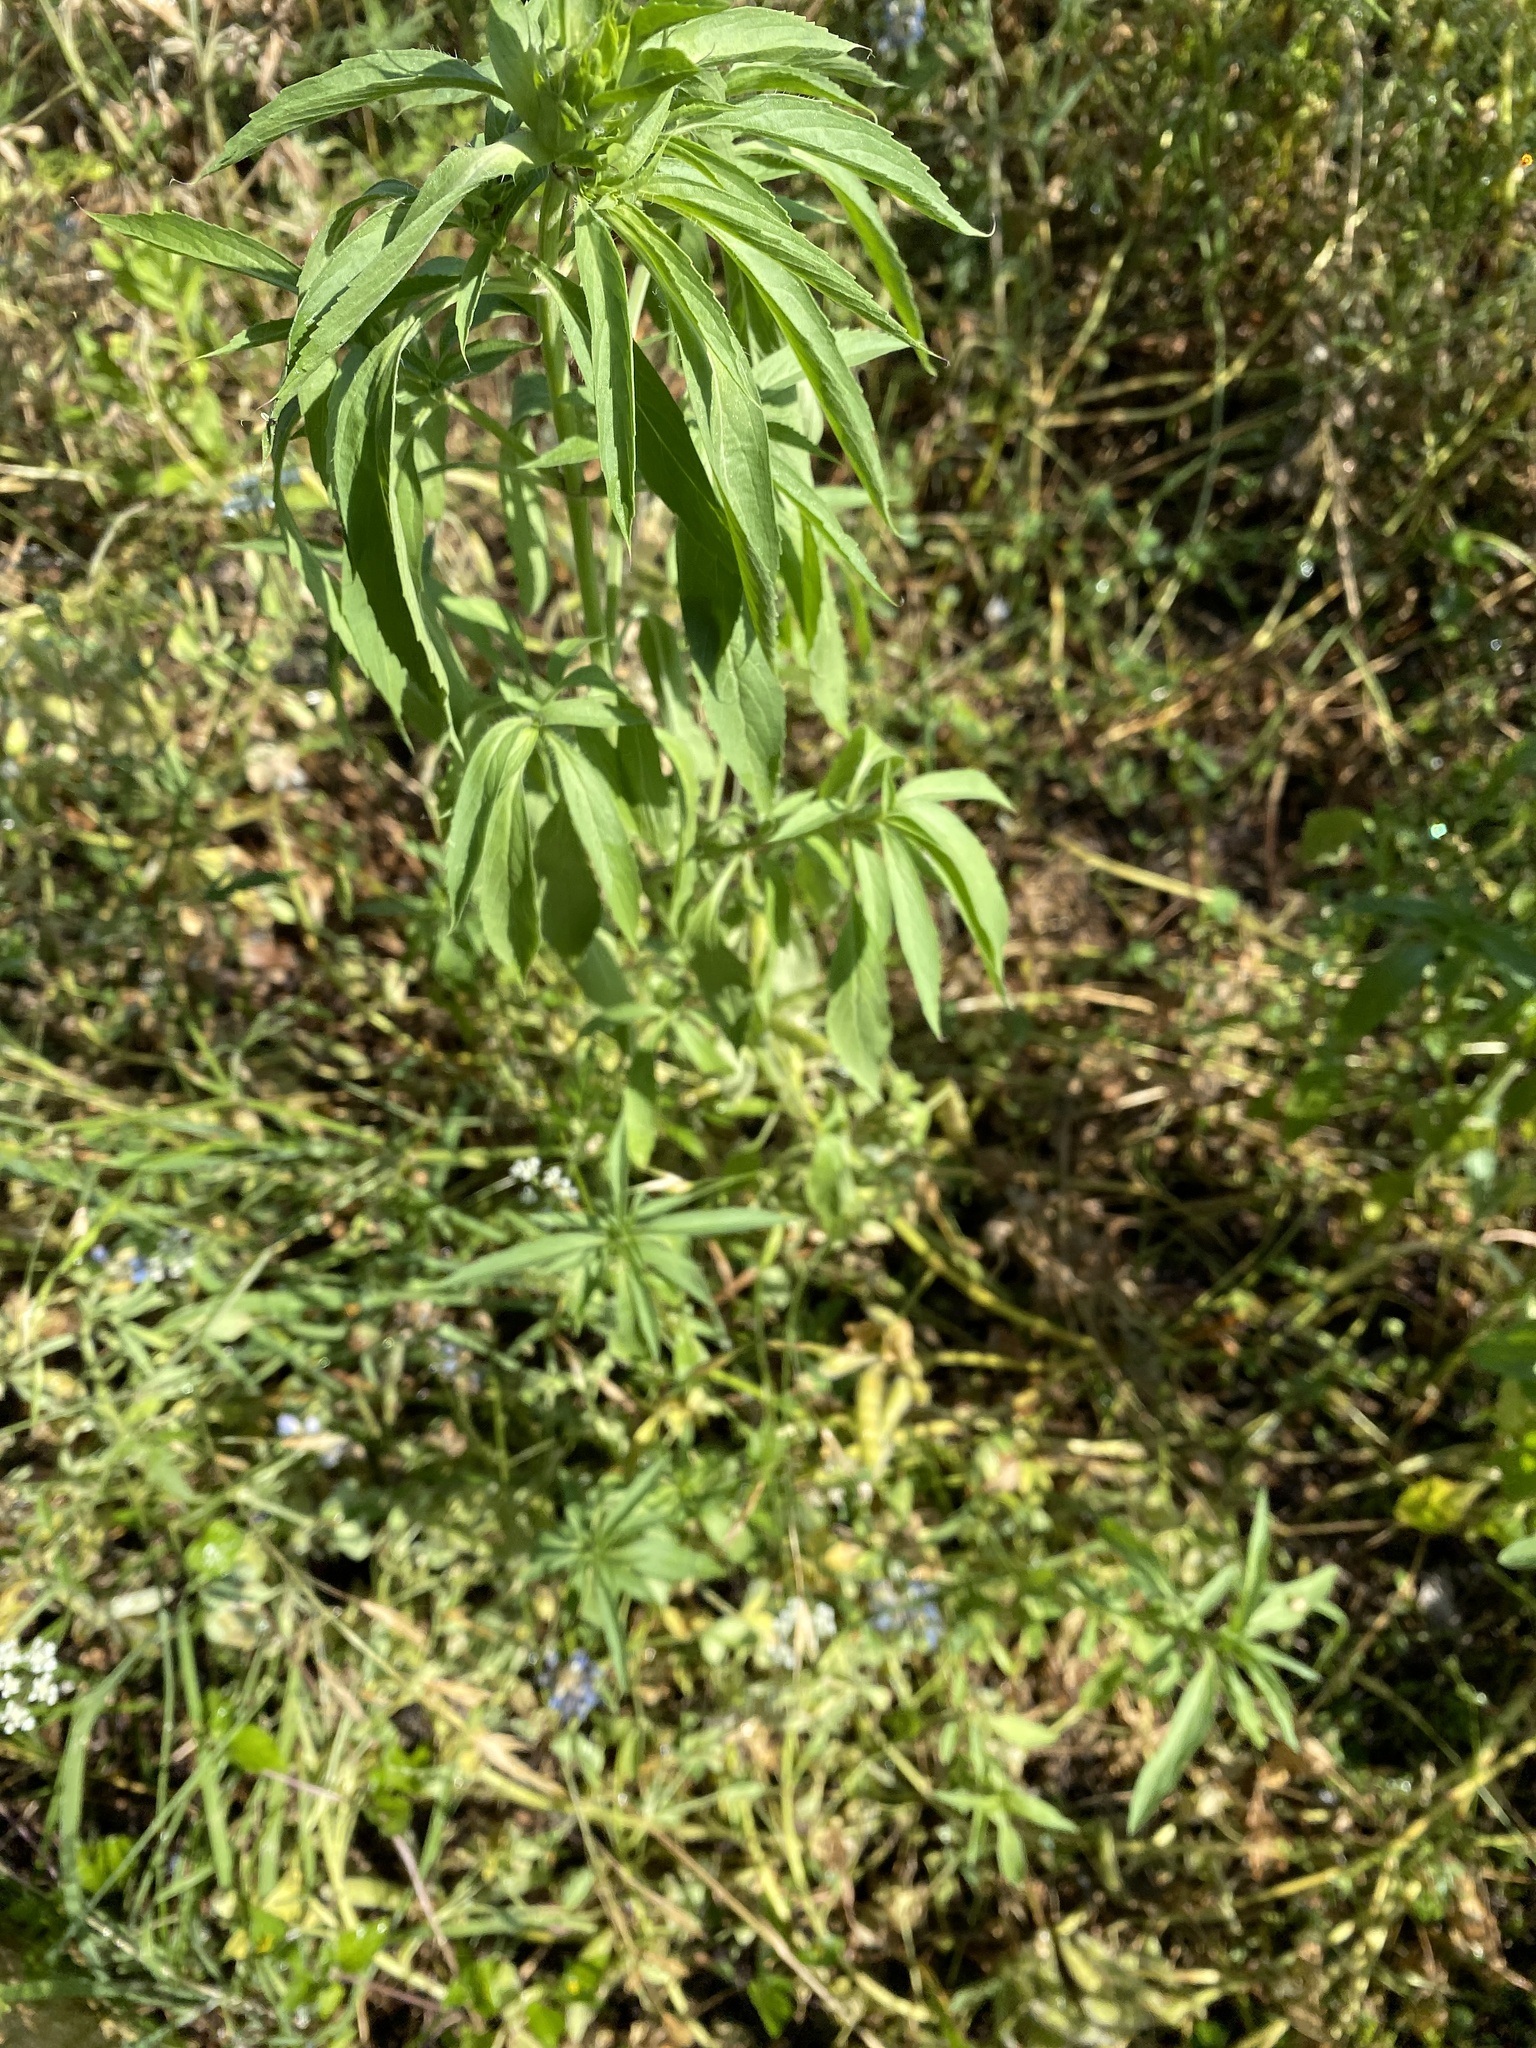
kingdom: Plantae
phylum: Tracheophyta
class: Magnoliopsida
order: Lamiales
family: Lamiaceae
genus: Monarda
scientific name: Monarda citriodora
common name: Lemon beebalm
